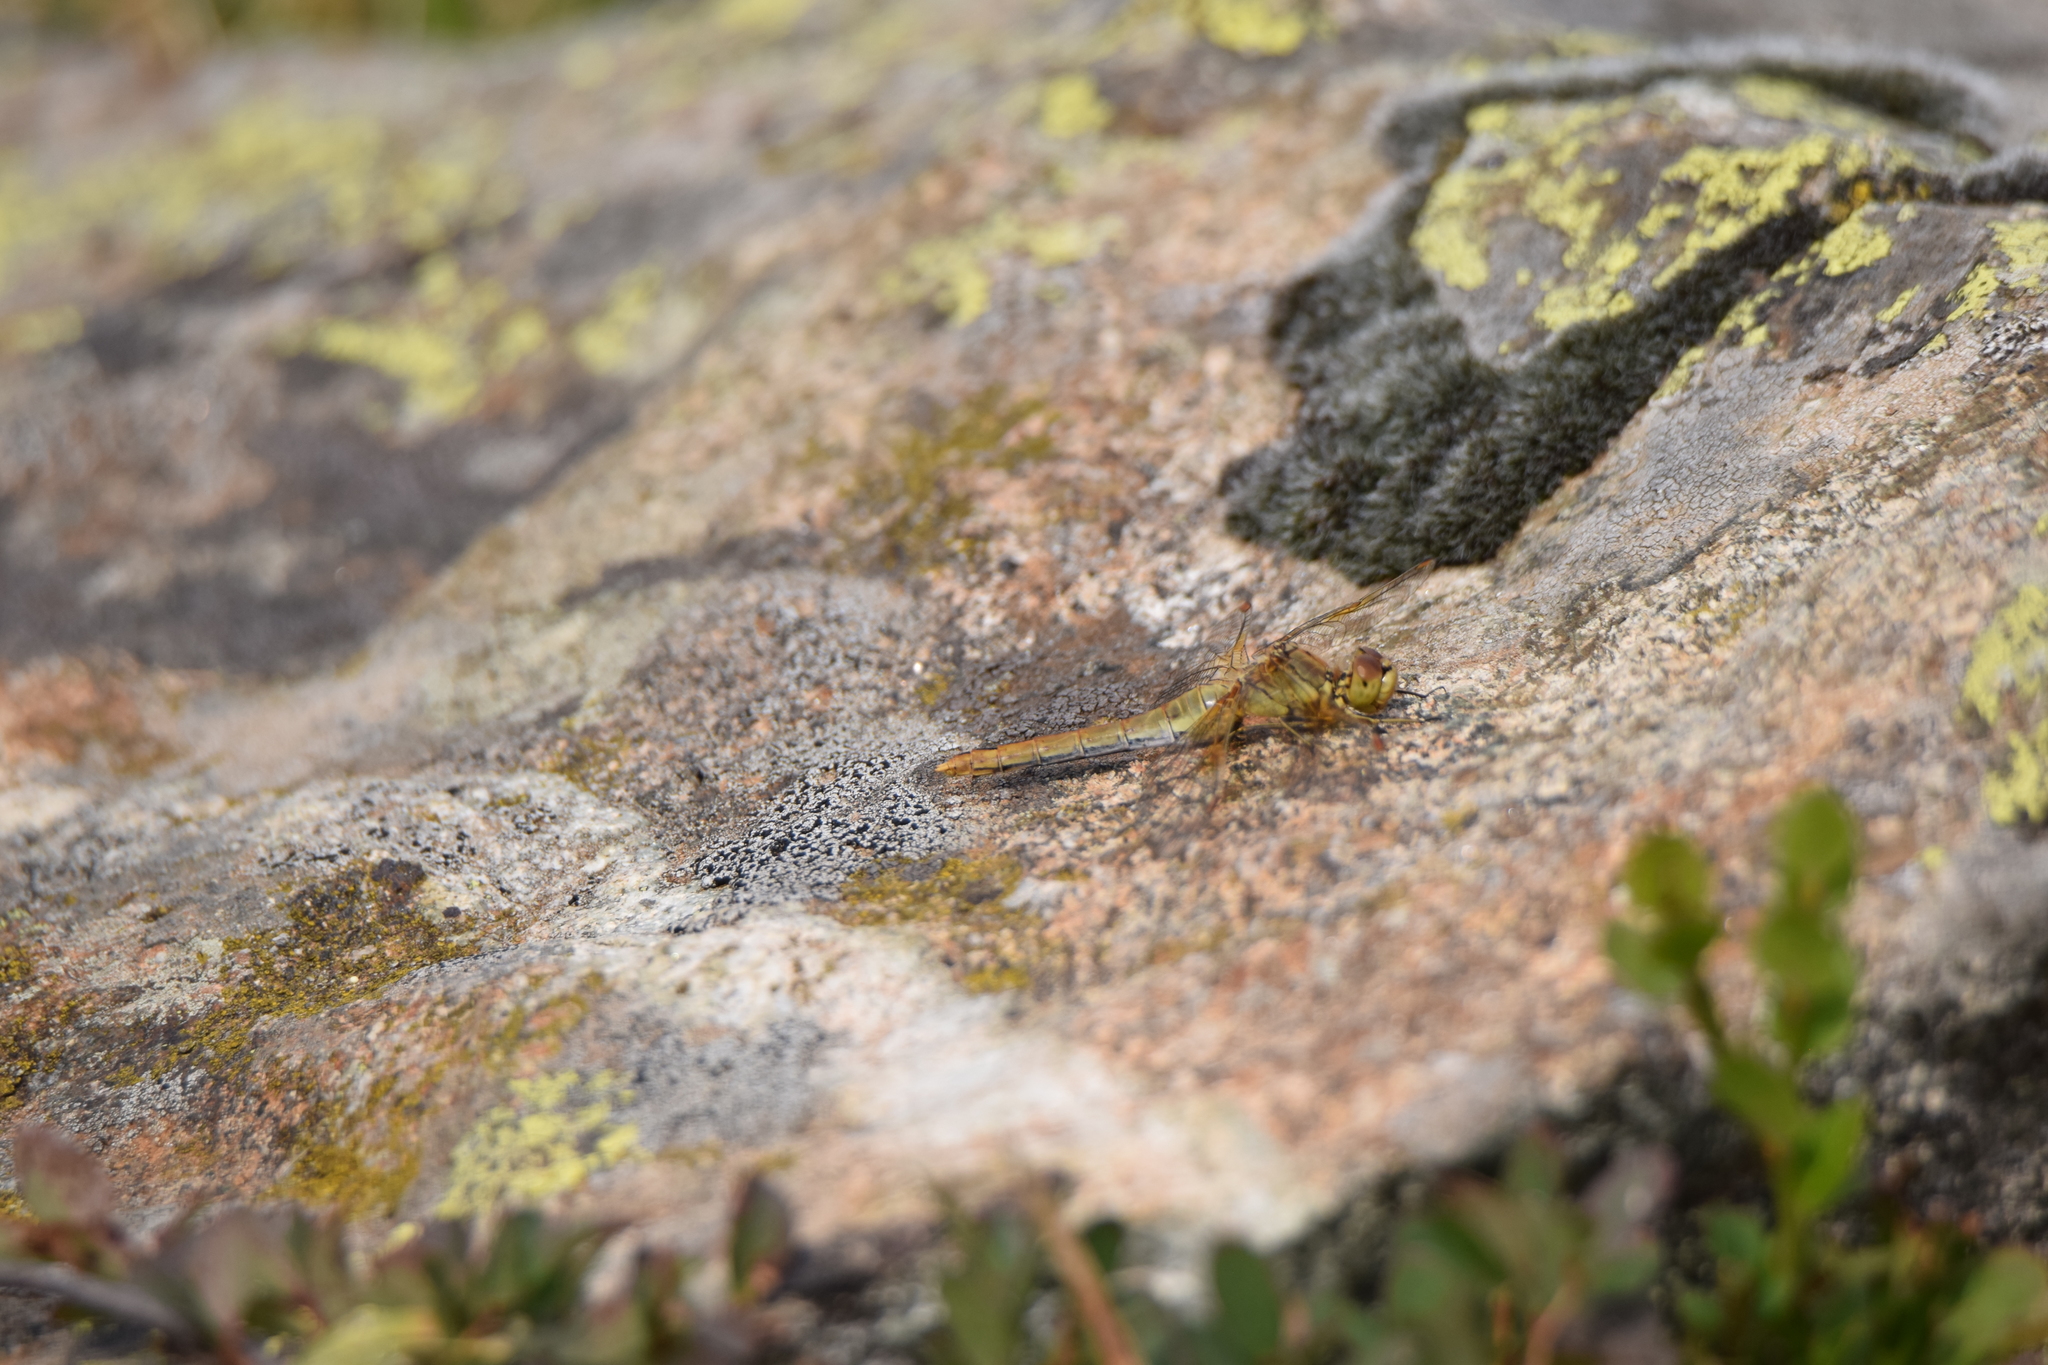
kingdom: Animalia
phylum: Arthropoda
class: Insecta
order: Odonata
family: Libellulidae
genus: Sympetrum
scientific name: Sympetrum flaveolum
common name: Yellow-winged darter
